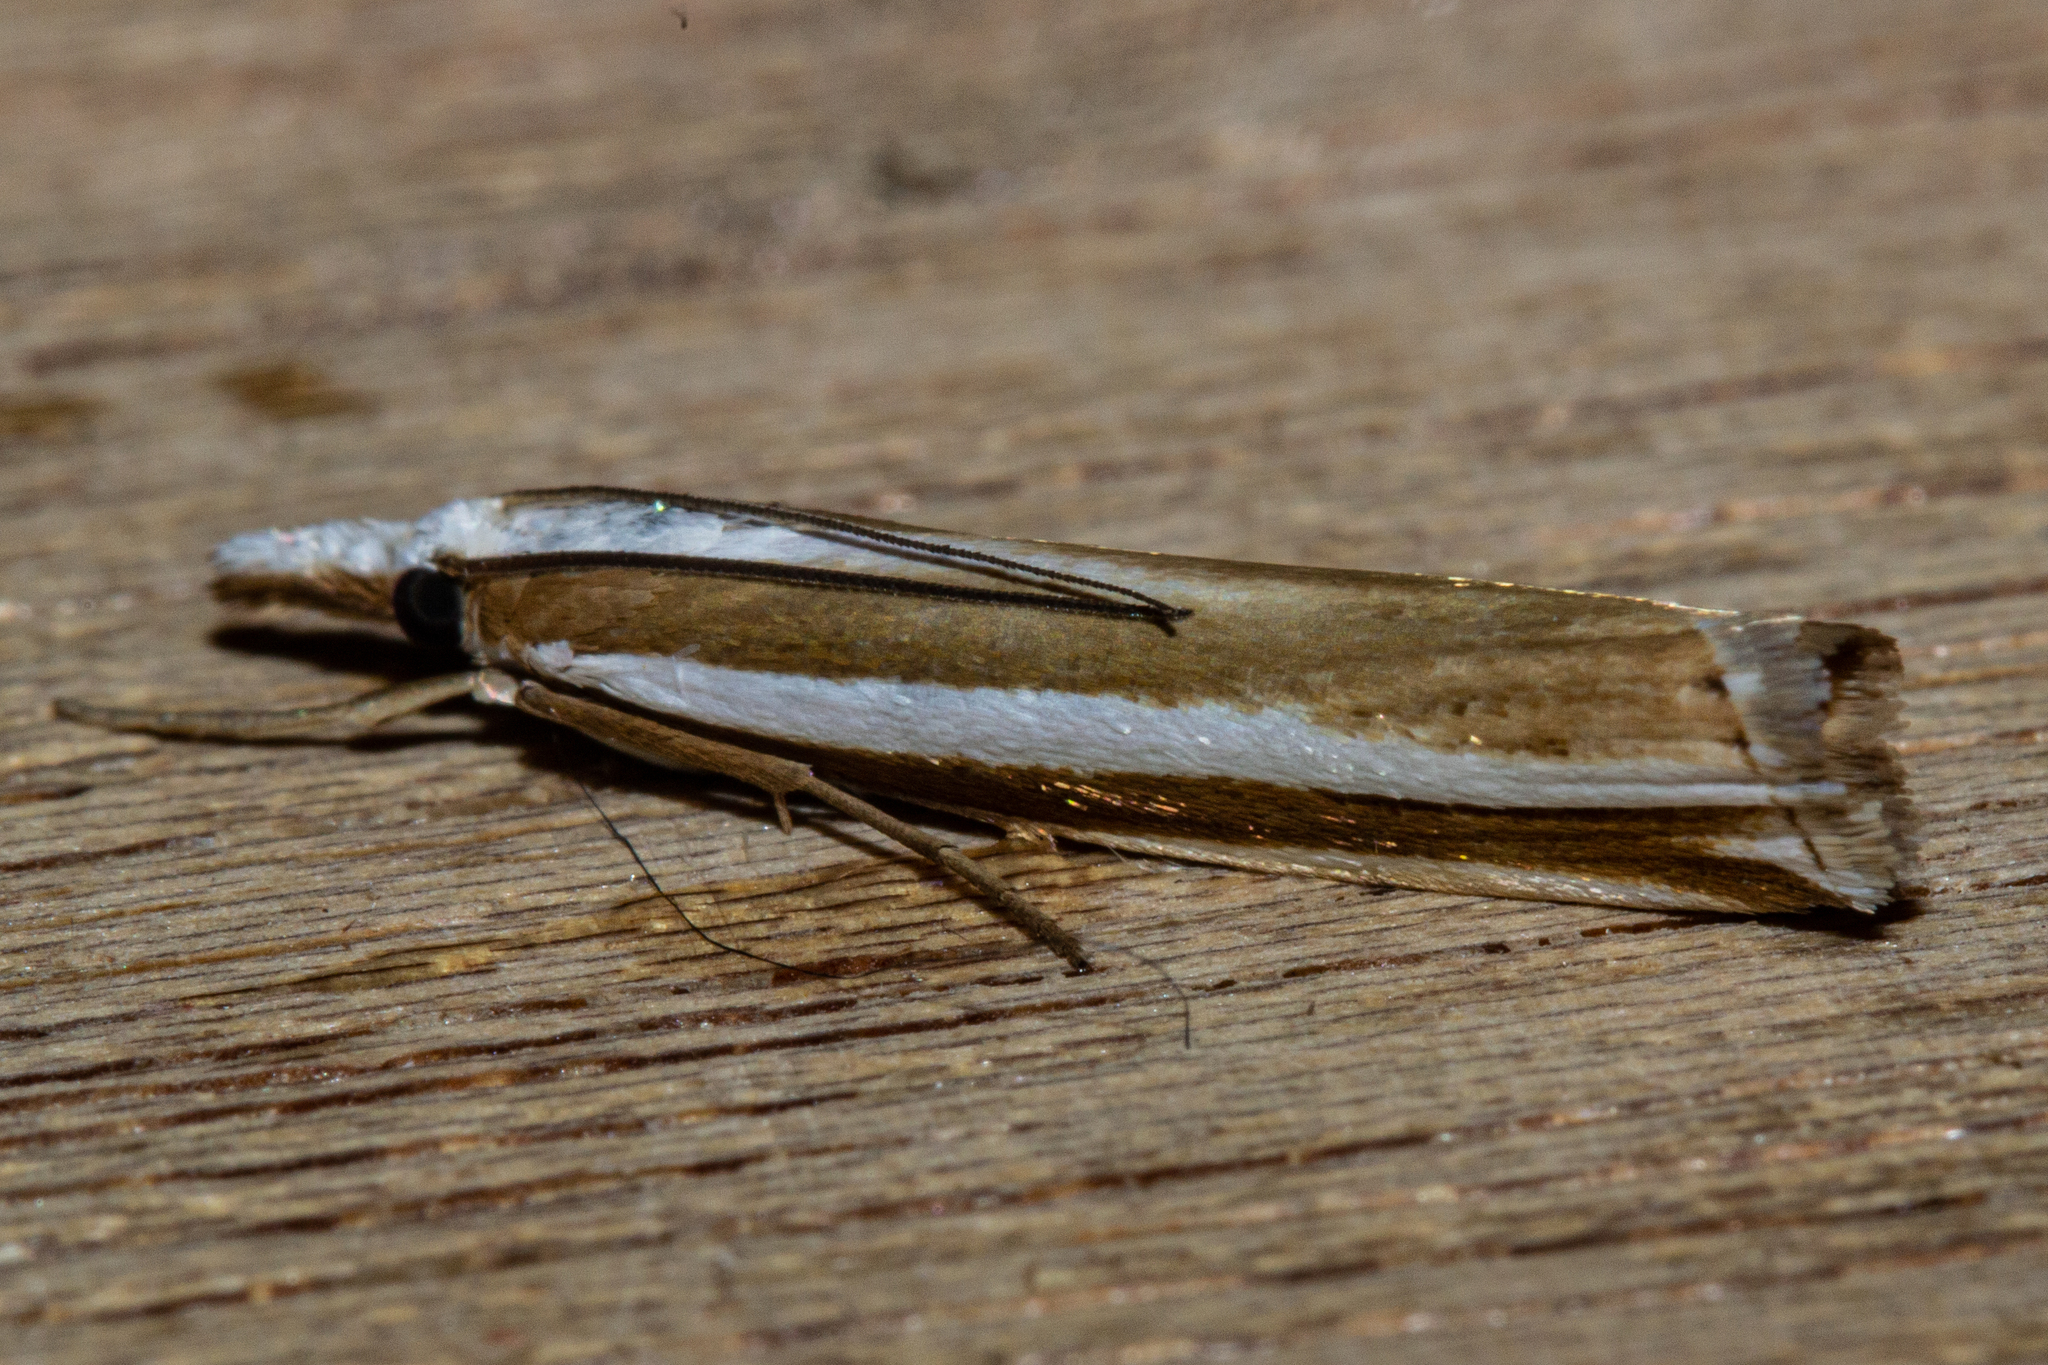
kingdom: Animalia
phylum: Arthropoda
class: Insecta
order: Lepidoptera
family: Crambidae
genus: Orocrambus
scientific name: Orocrambus apicellus
